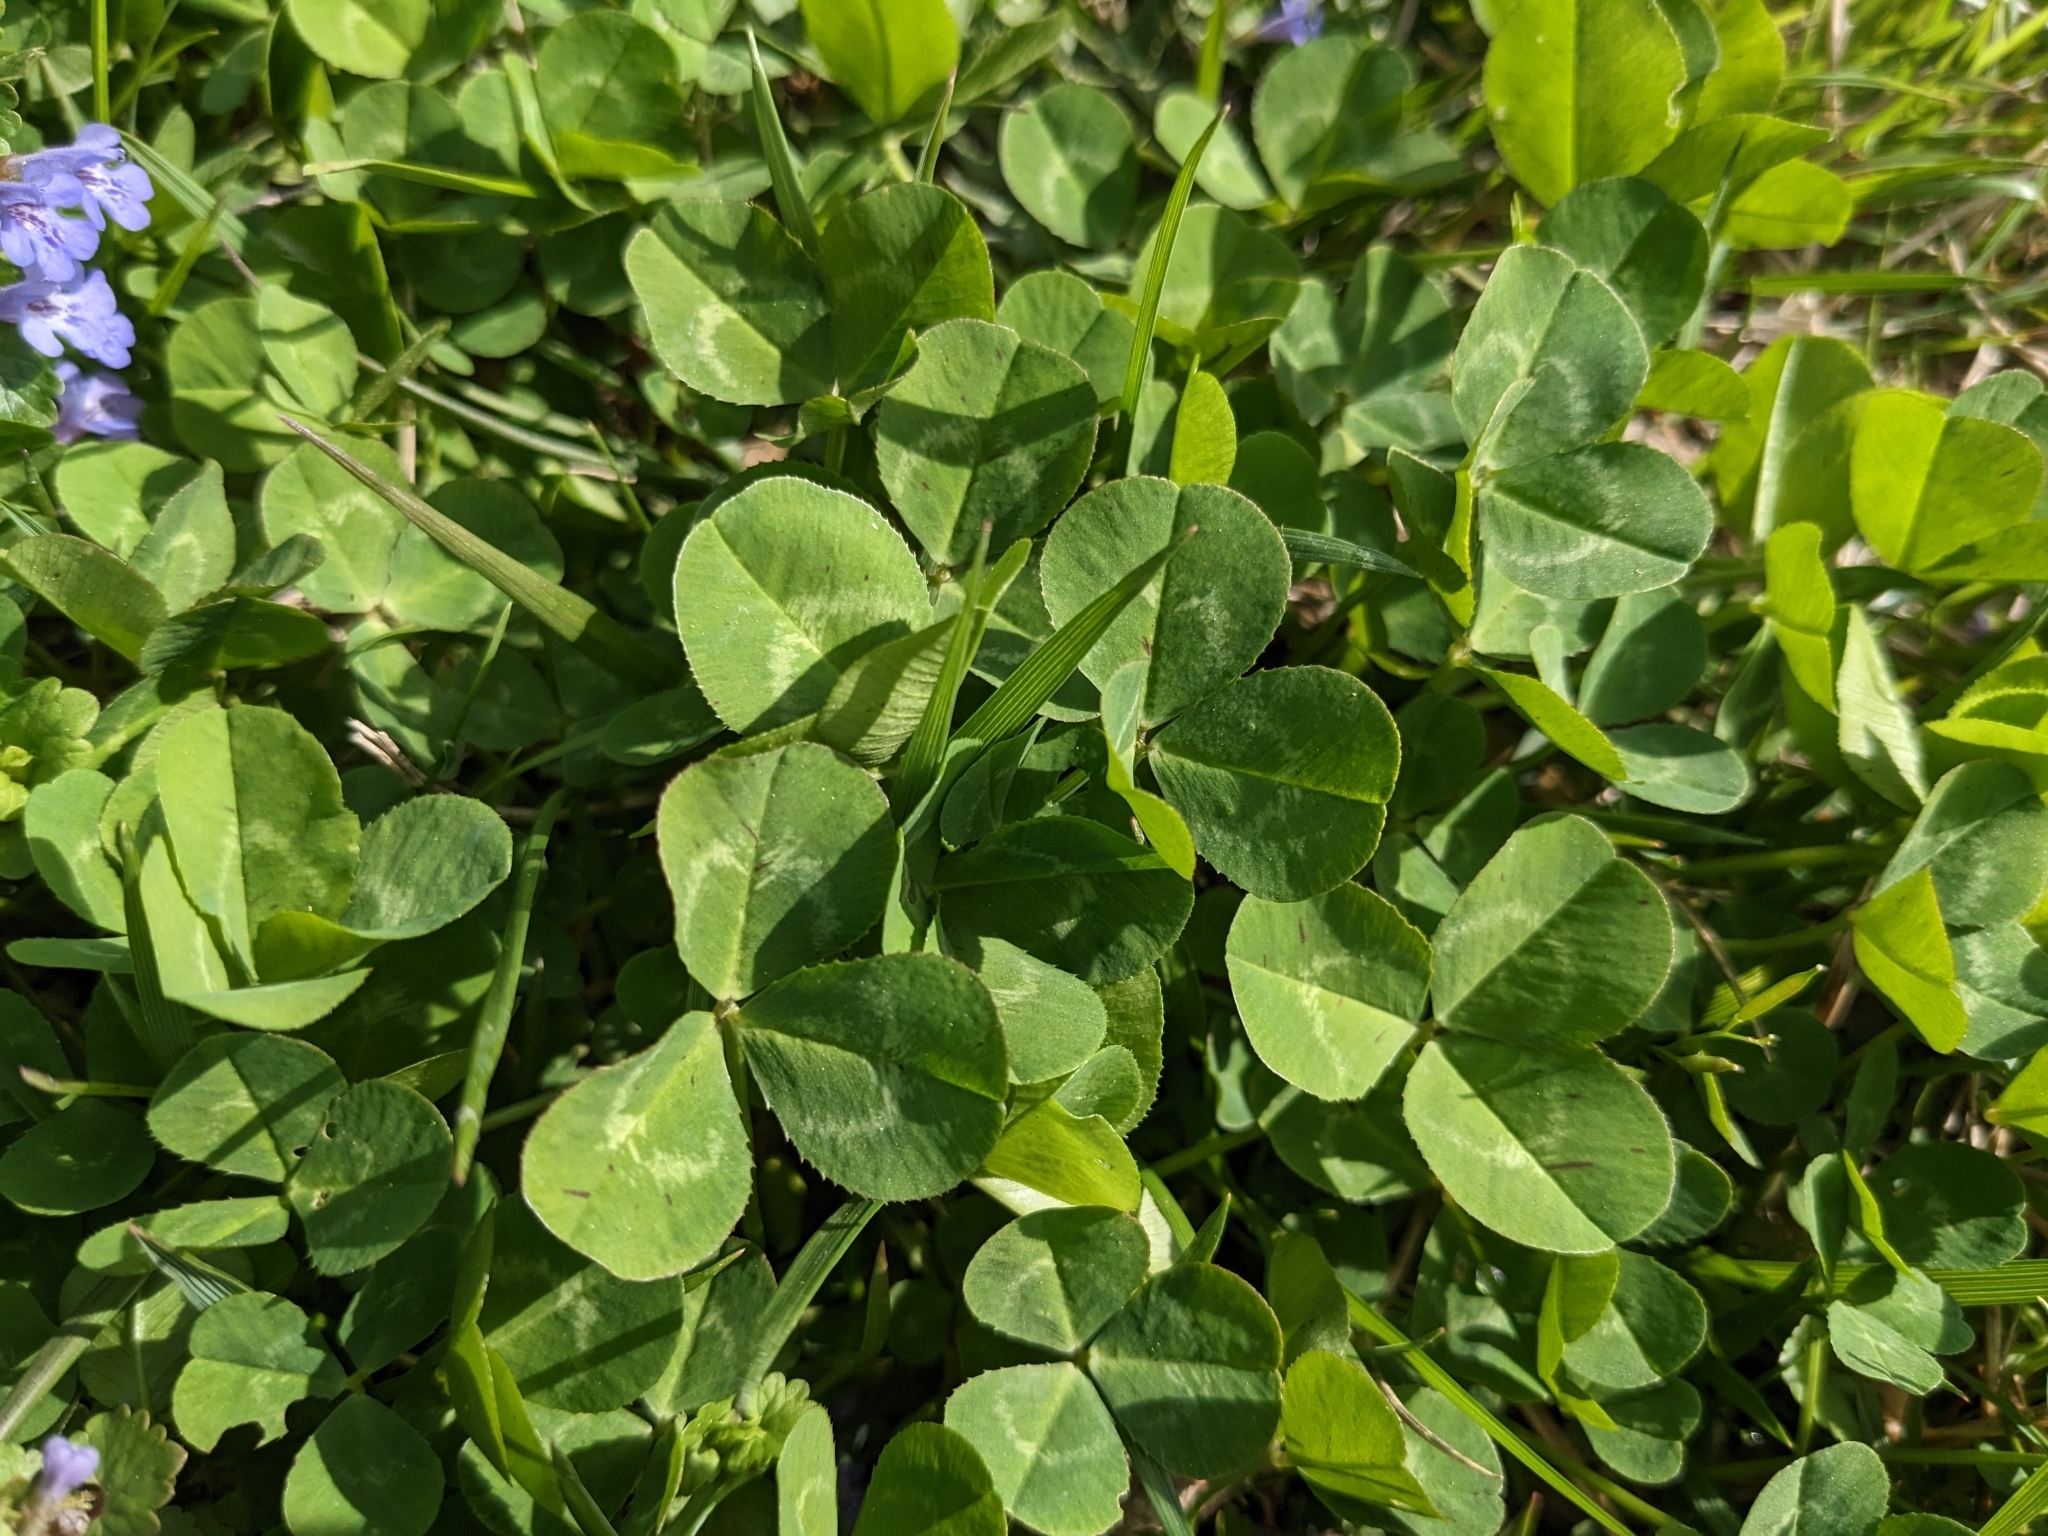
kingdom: Plantae
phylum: Tracheophyta
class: Magnoliopsida
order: Fabales
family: Fabaceae
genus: Trifolium
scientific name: Trifolium repens
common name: White clover
